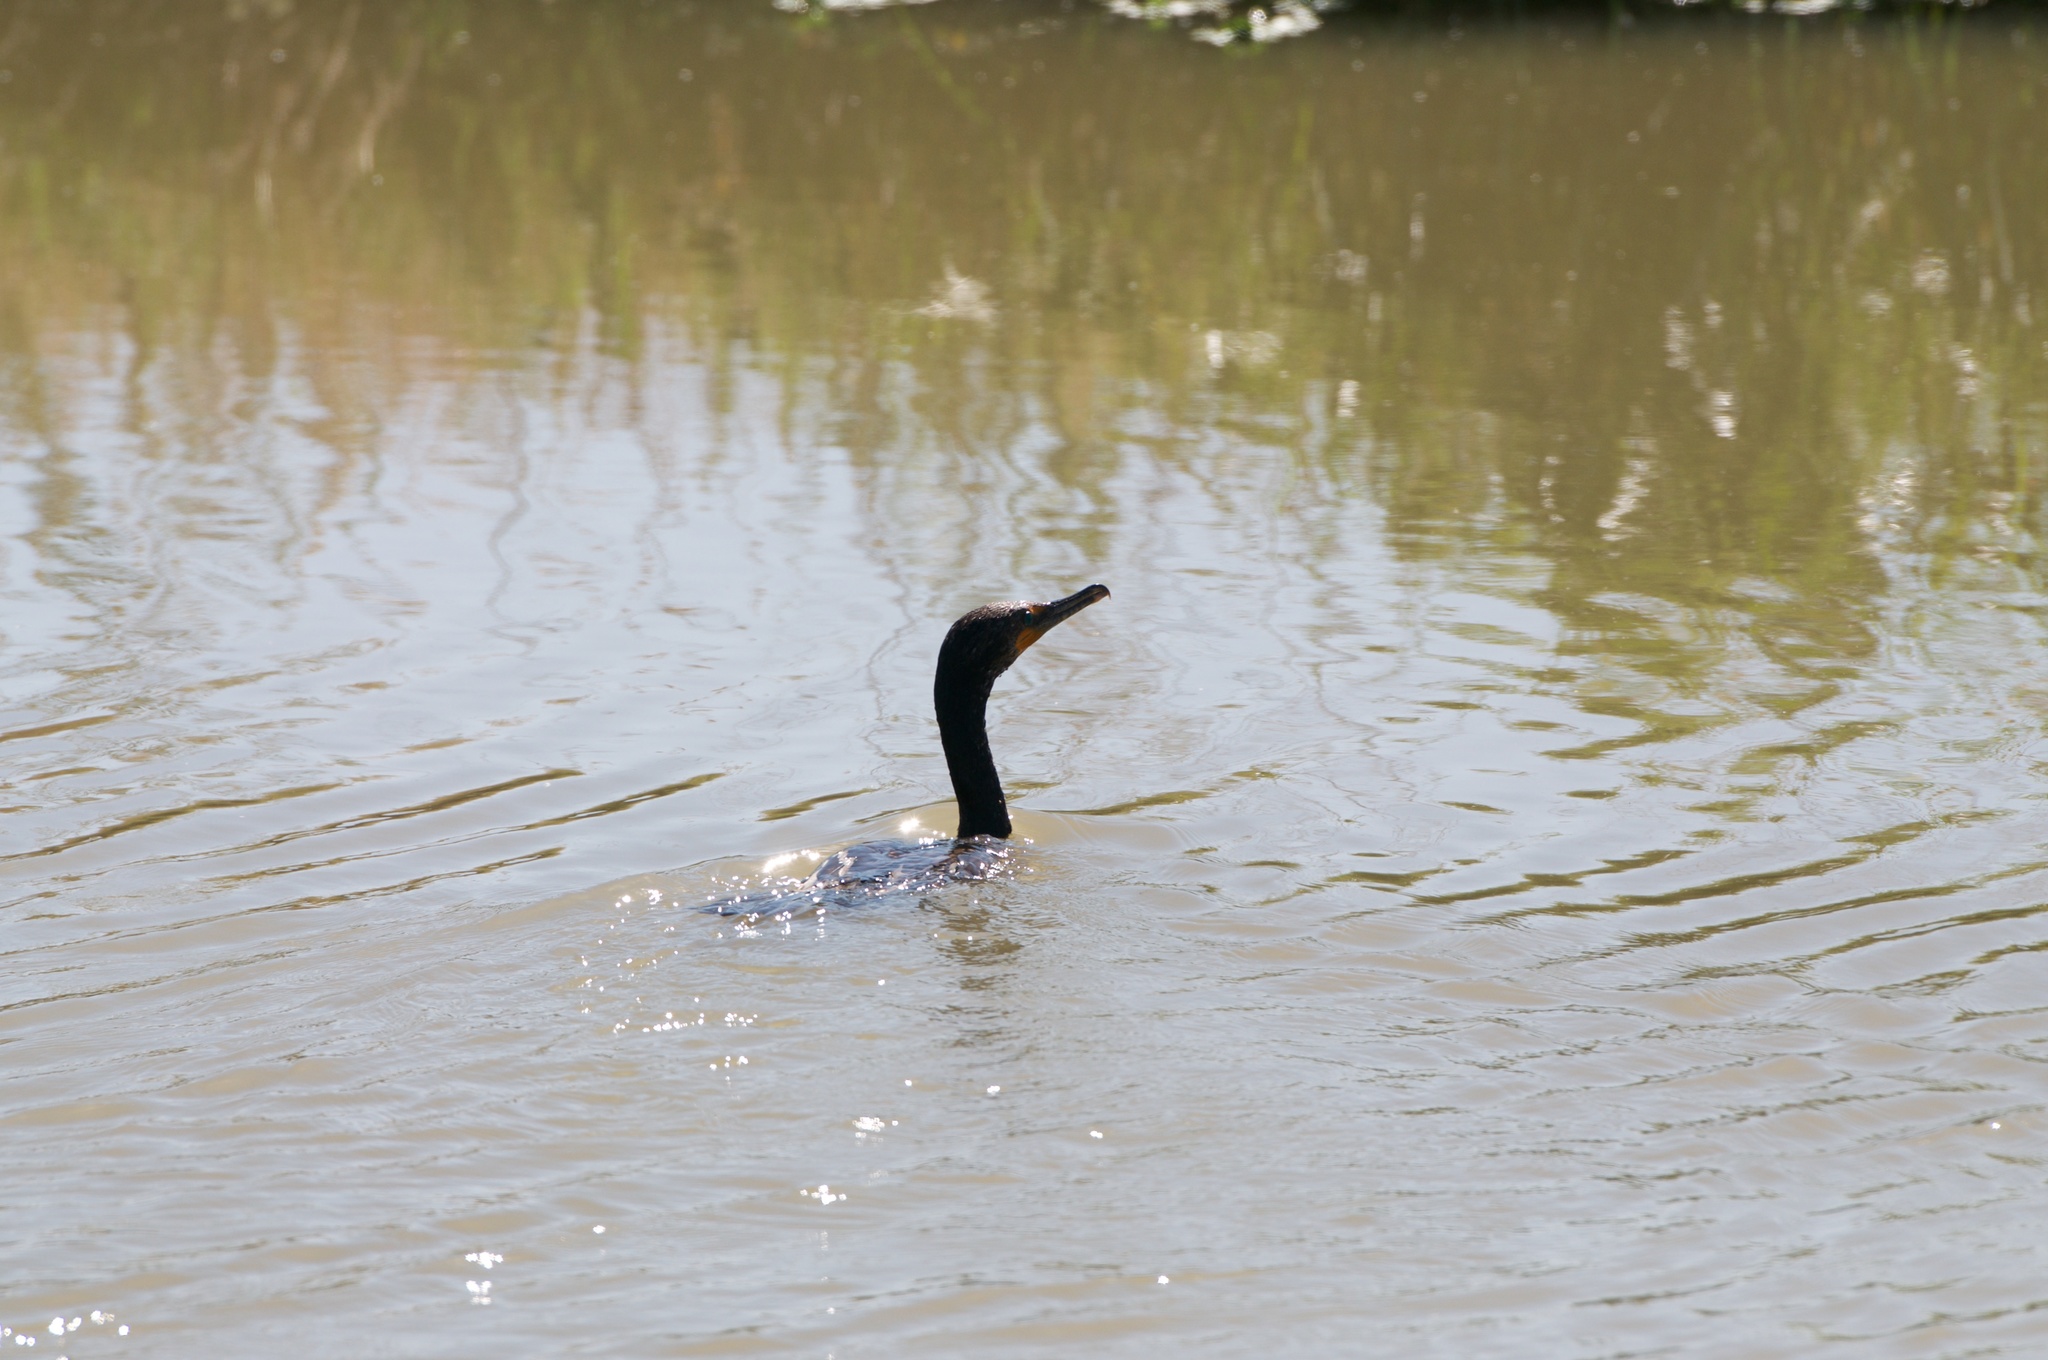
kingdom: Animalia
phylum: Chordata
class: Aves
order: Suliformes
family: Phalacrocoracidae
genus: Phalacrocorax
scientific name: Phalacrocorax auritus
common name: Double-crested cormorant
